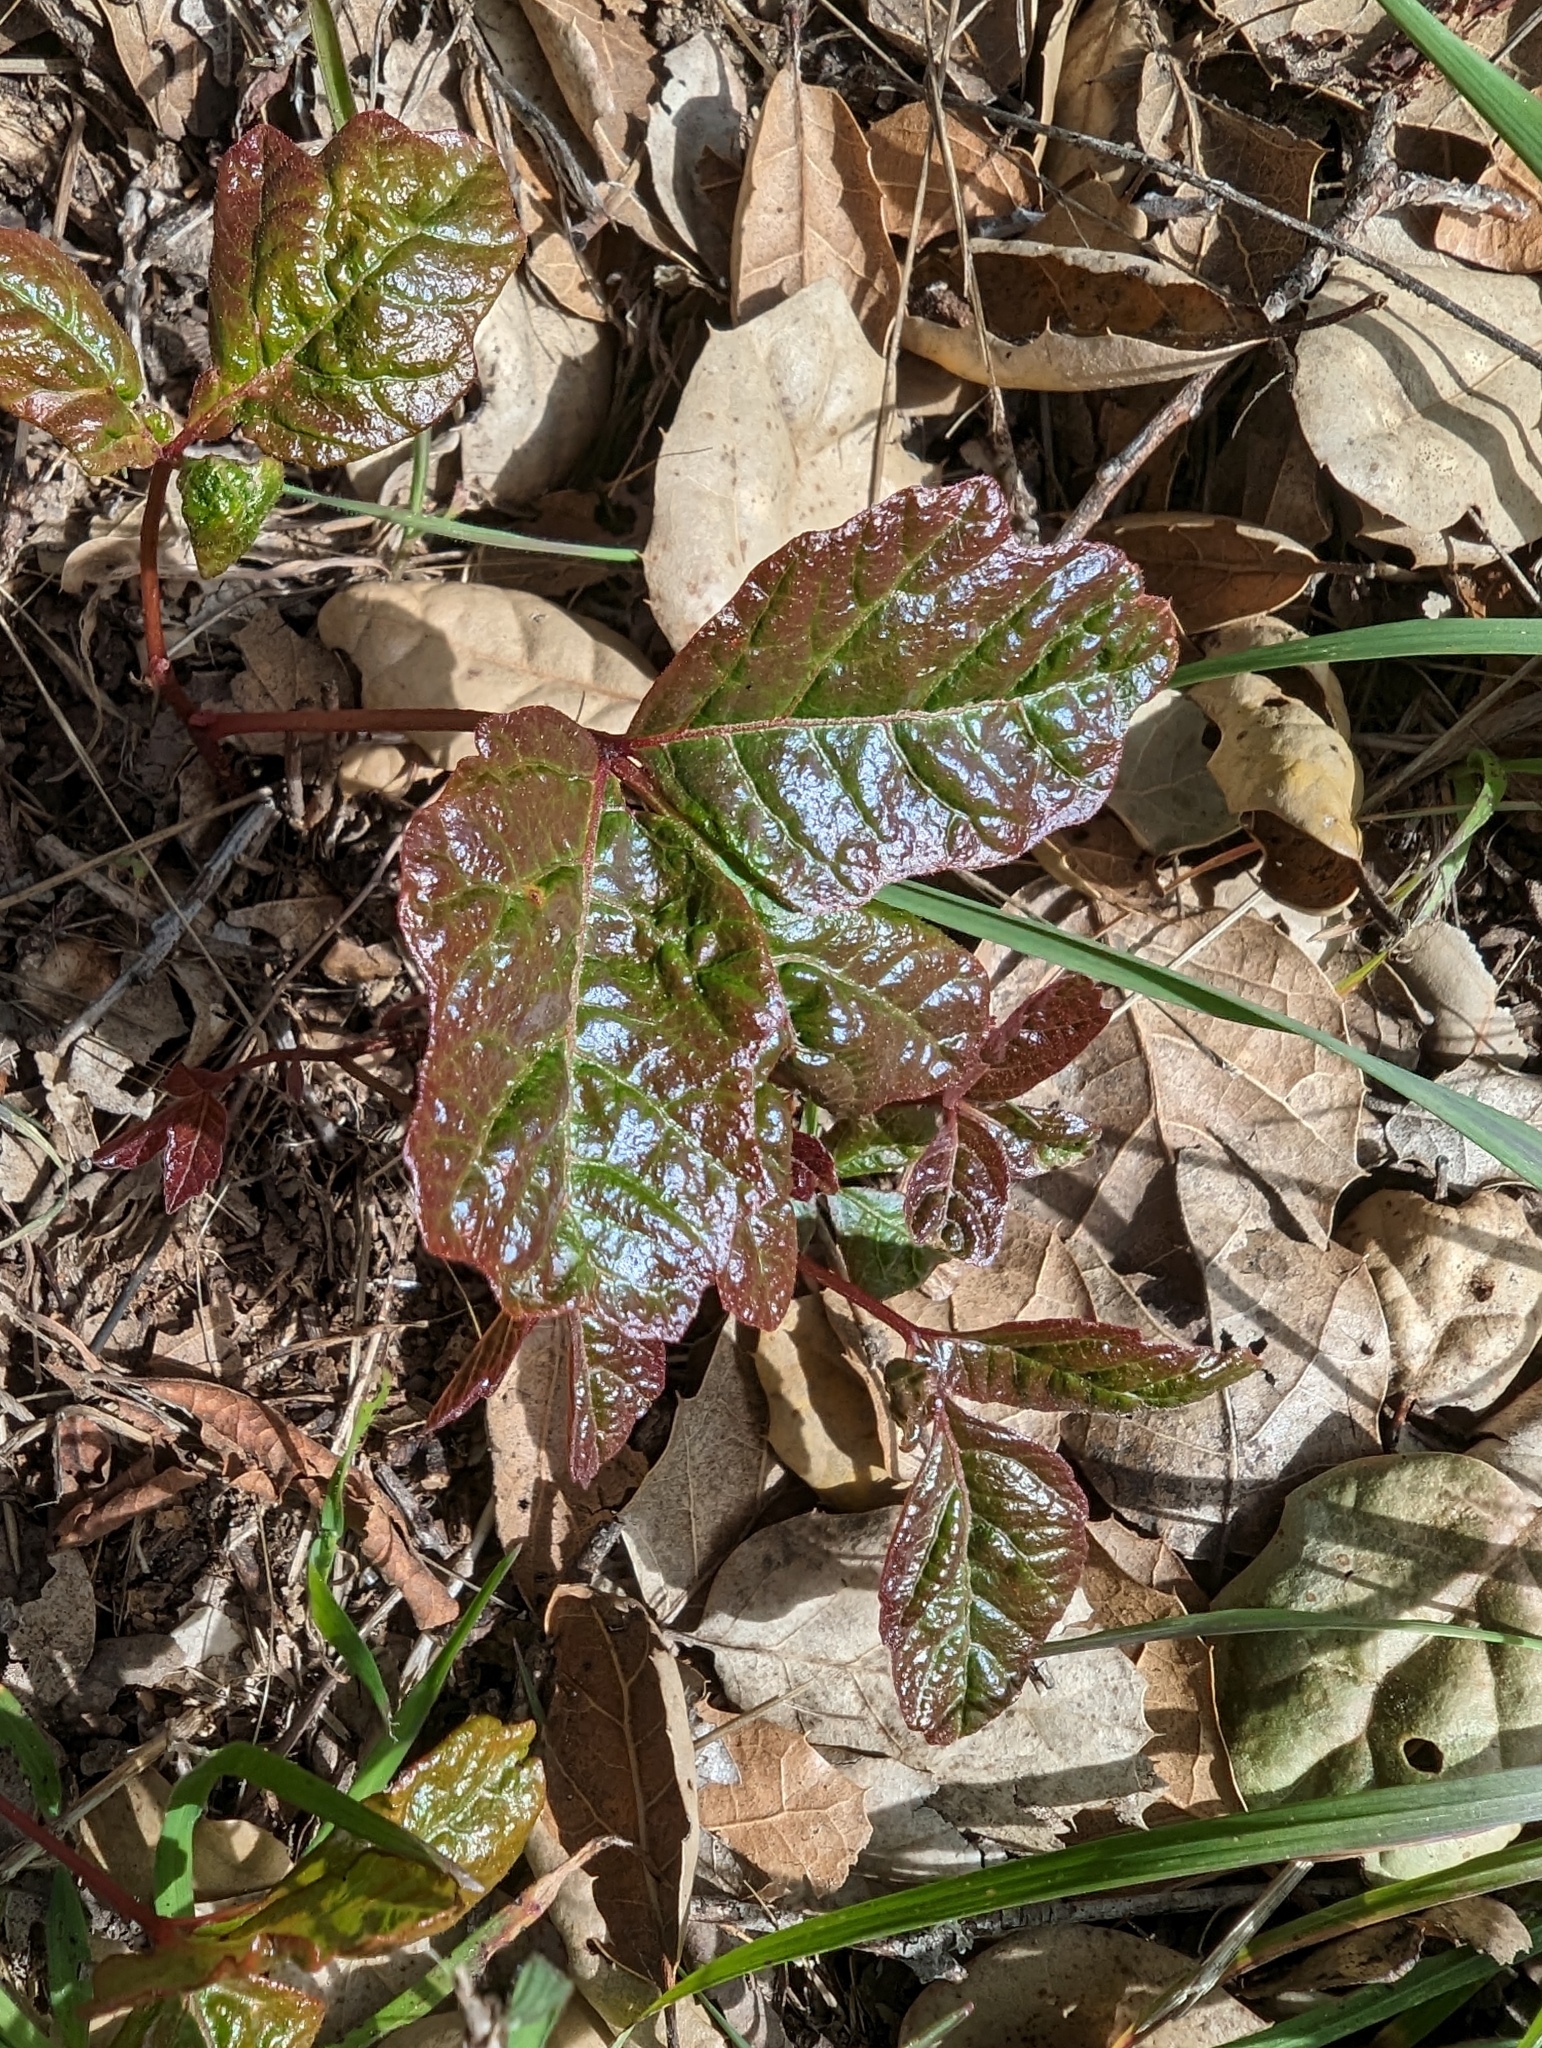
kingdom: Plantae
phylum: Tracheophyta
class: Magnoliopsida
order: Sapindales
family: Anacardiaceae
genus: Toxicodendron
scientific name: Toxicodendron diversilobum
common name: Pacific poison-oak
